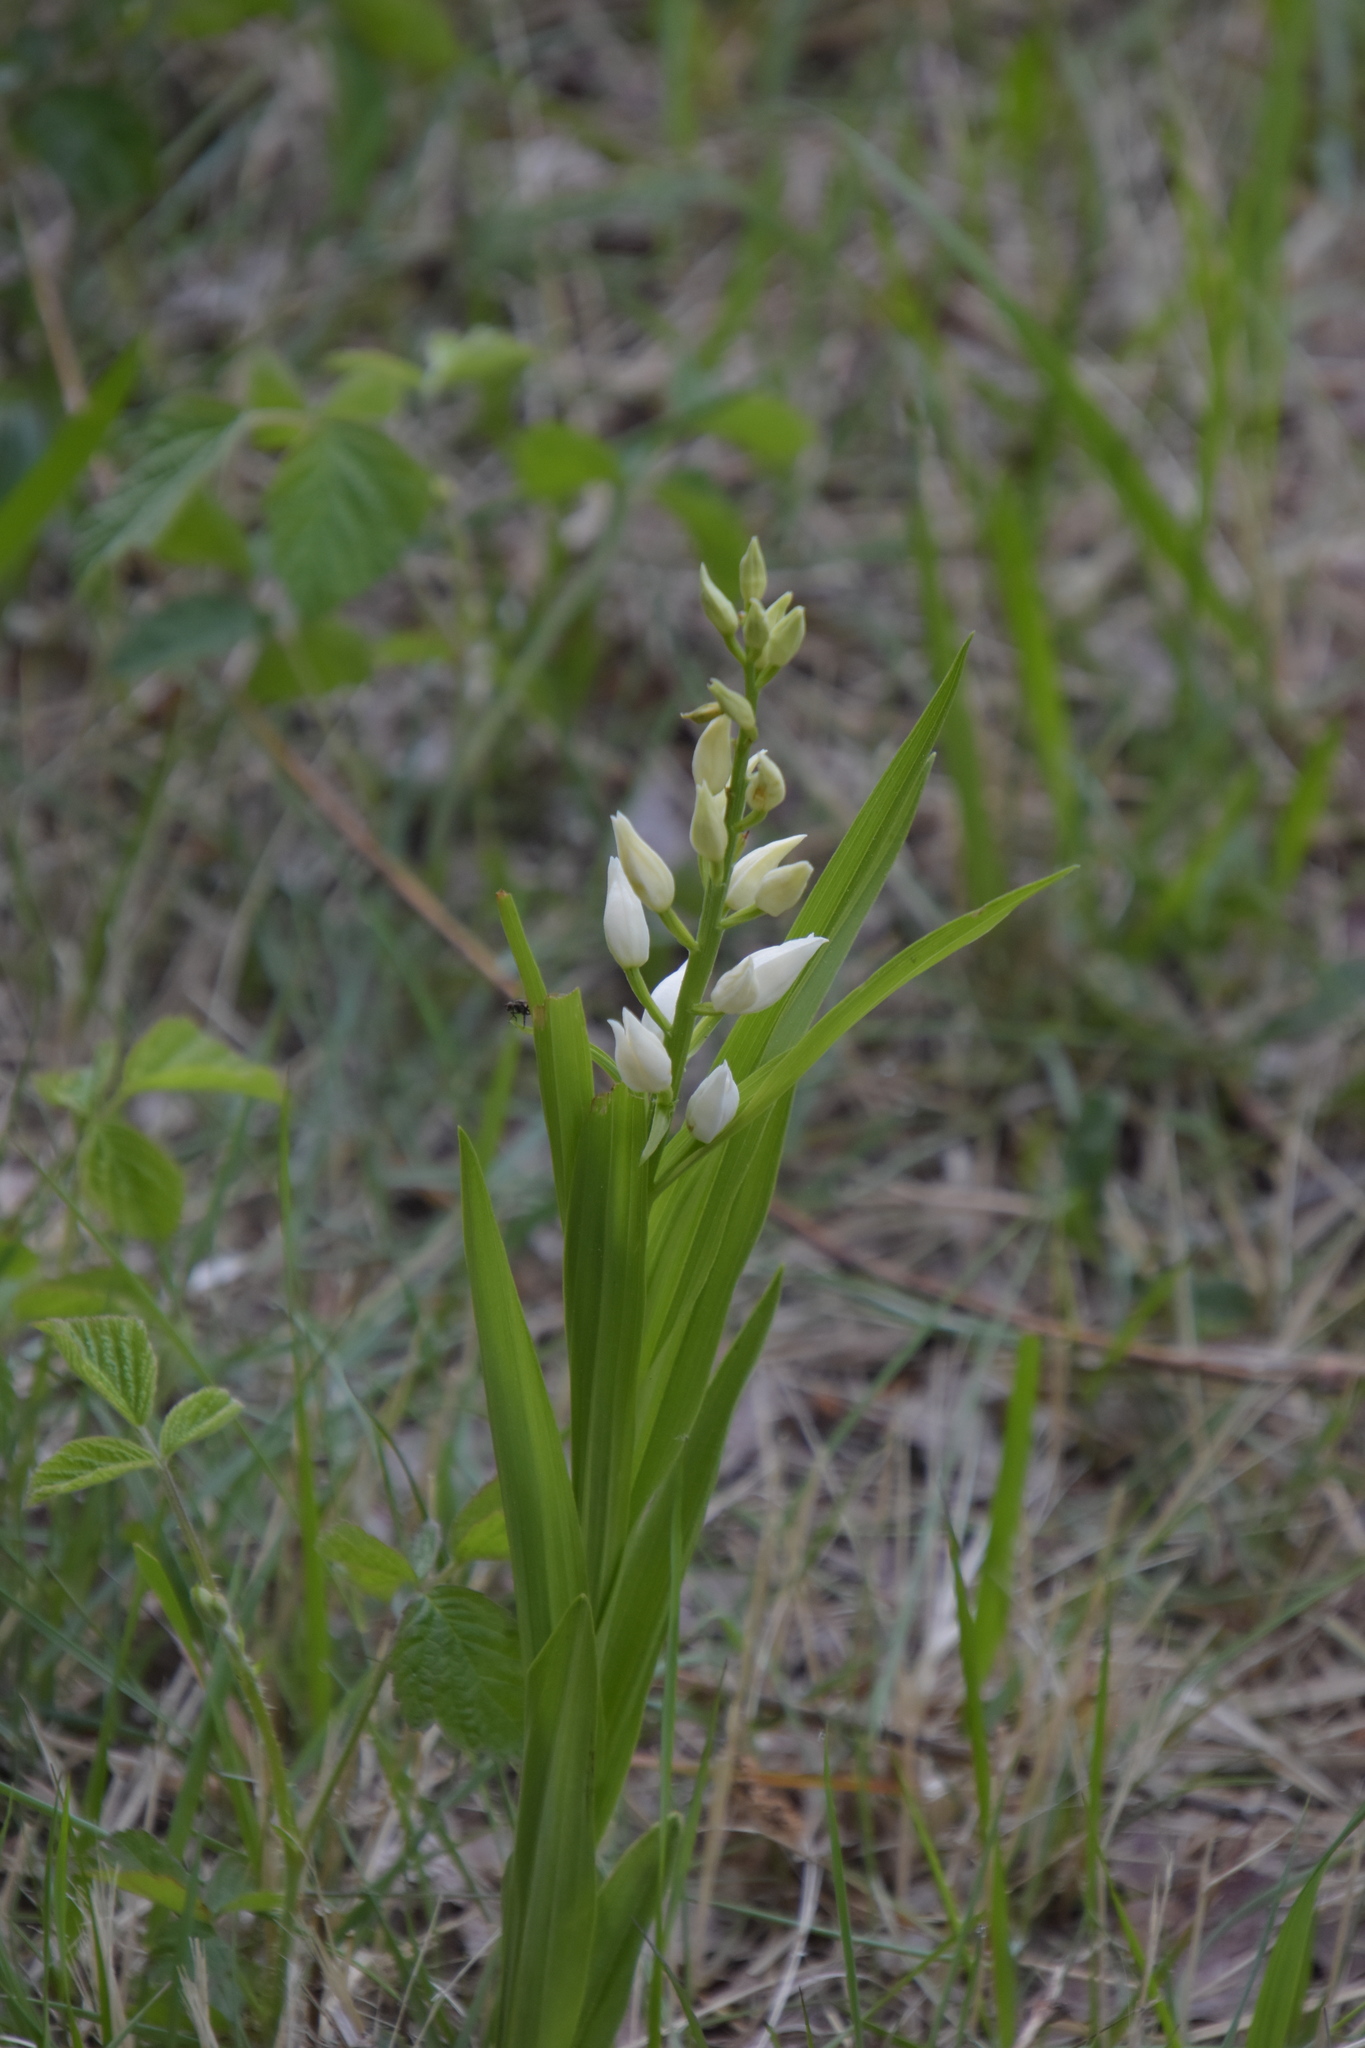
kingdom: Plantae
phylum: Tracheophyta
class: Liliopsida
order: Asparagales
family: Orchidaceae
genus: Cephalanthera
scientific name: Cephalanthera longifolia
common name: Narrow-leaved helleborine
